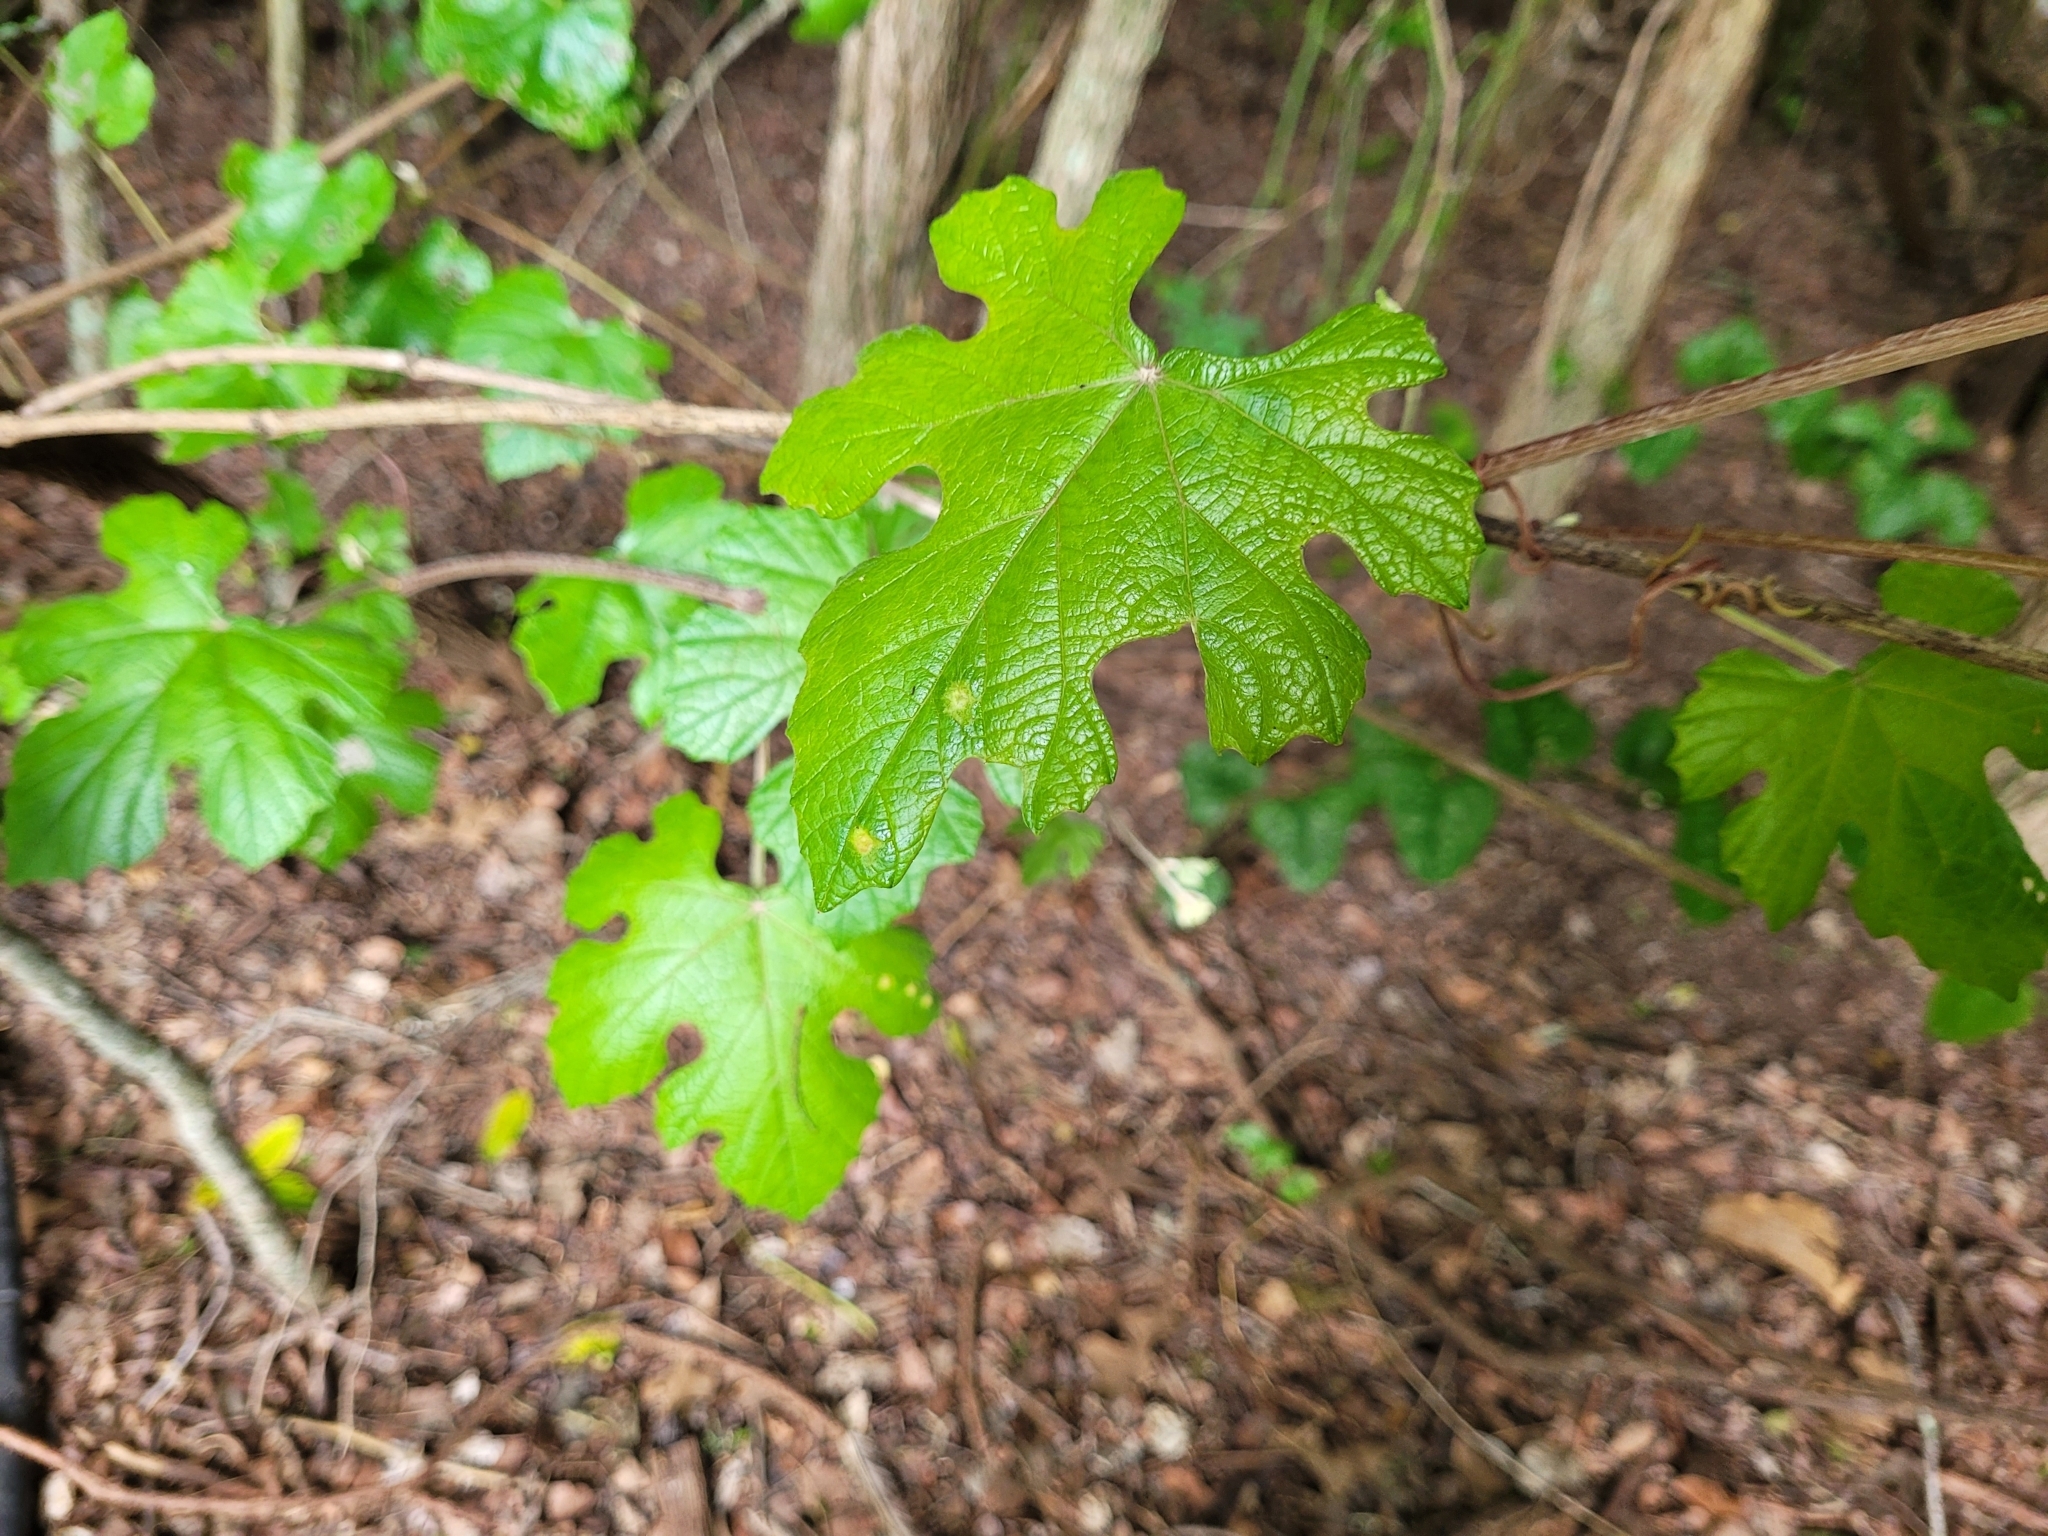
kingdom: Plantae
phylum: Tracheophyta
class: Magnoliopsida
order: Vitales
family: Vitaceae
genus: Vitis
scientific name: Vitis mustangensis
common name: Mustang grape
